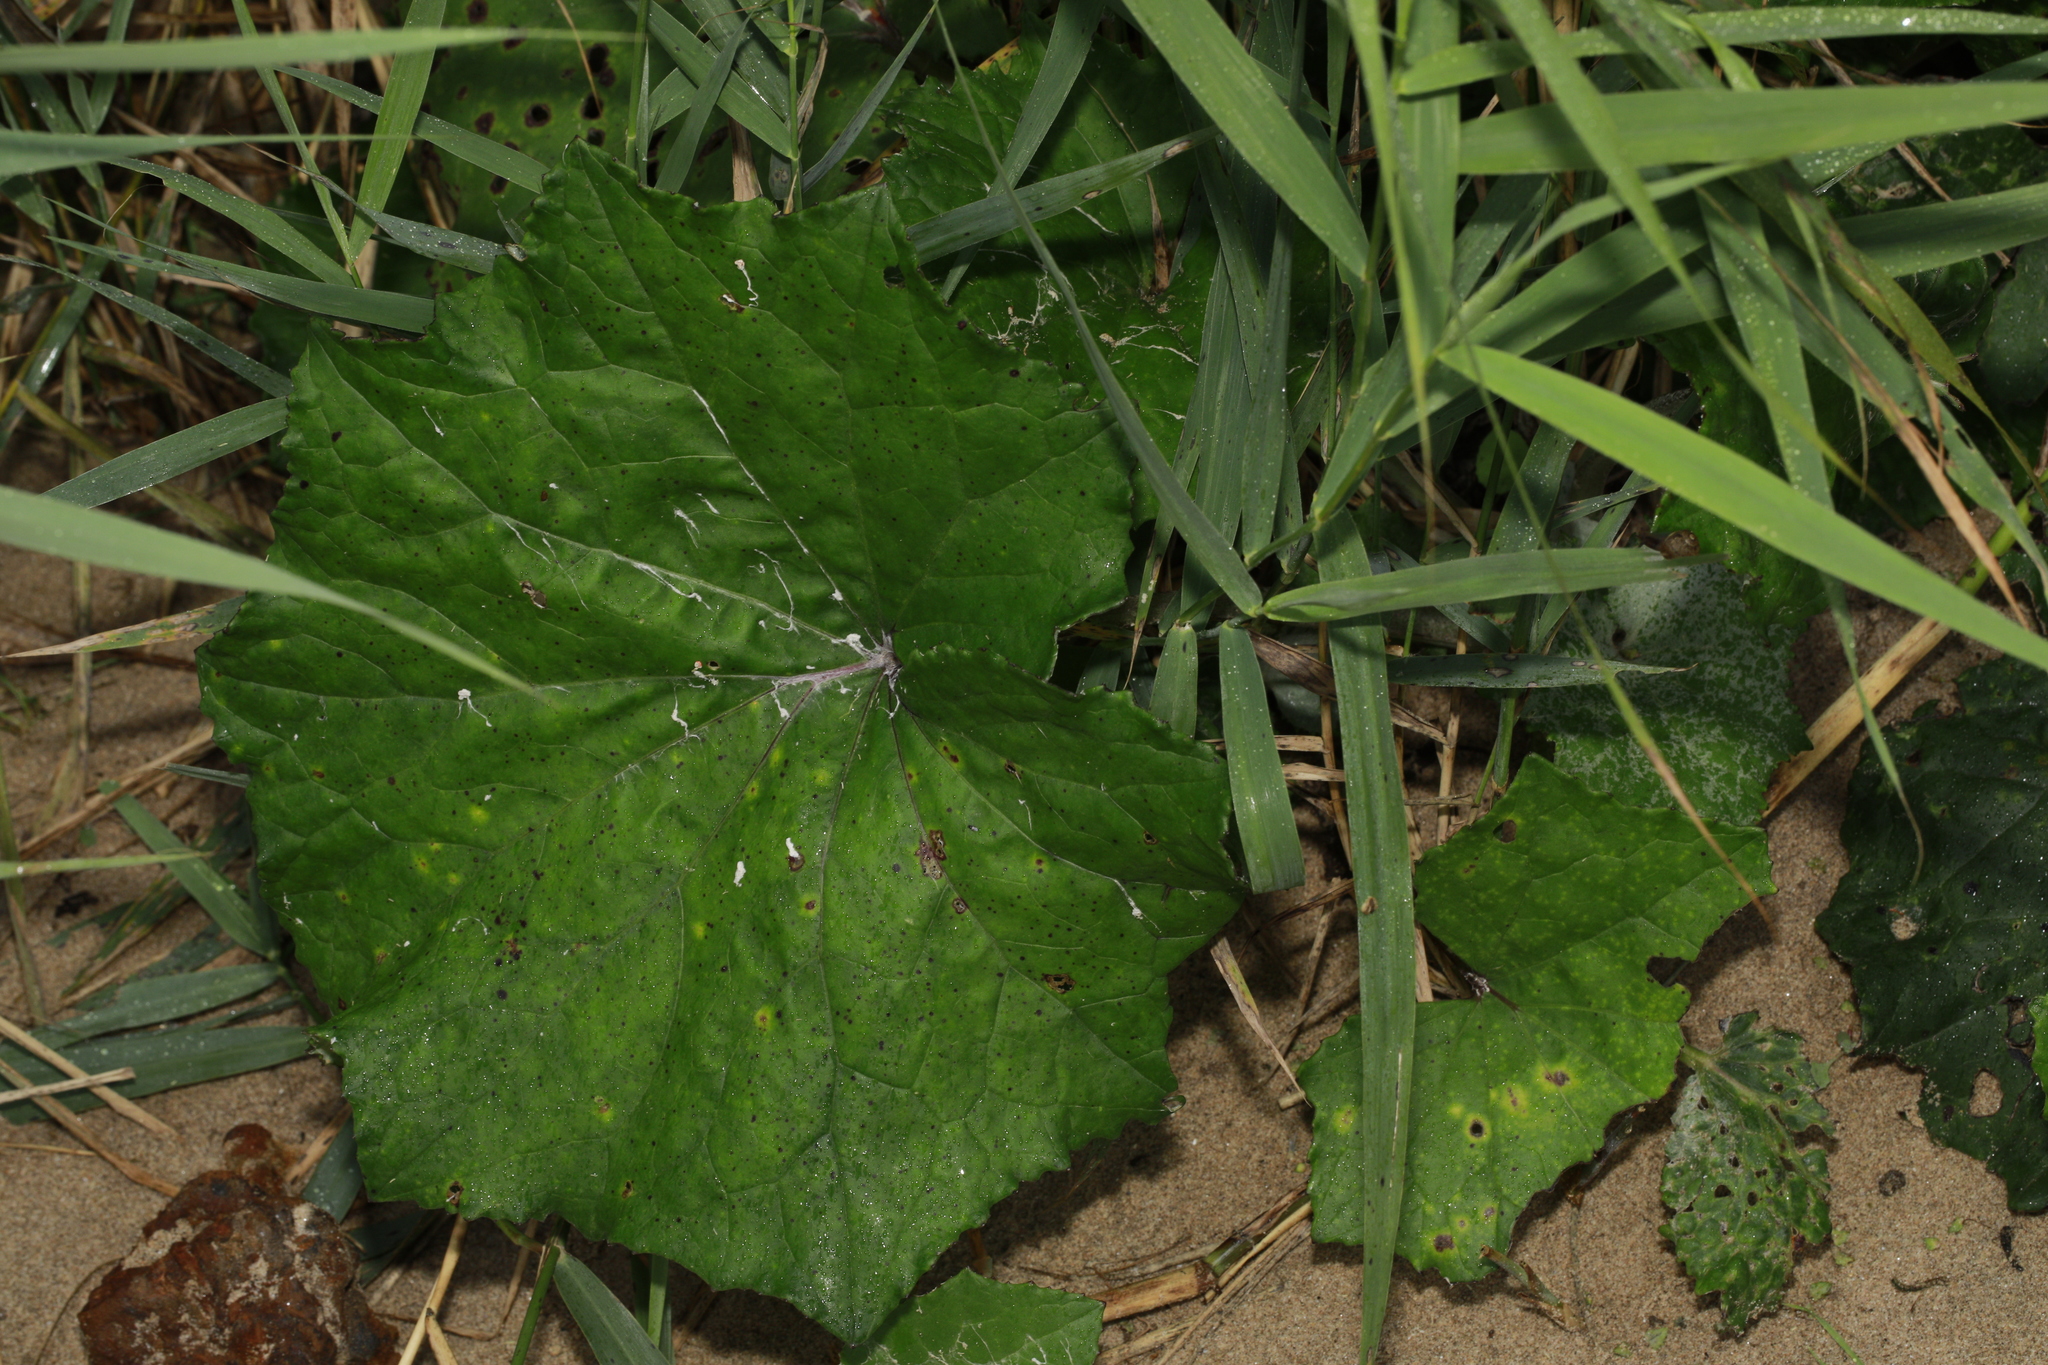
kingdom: Plantae
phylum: Tracheophyta
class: Magnoliopsida
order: Asterales
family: Asteraceae
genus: Tussilago
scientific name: Tussilago farfara
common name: Coltsfoot
